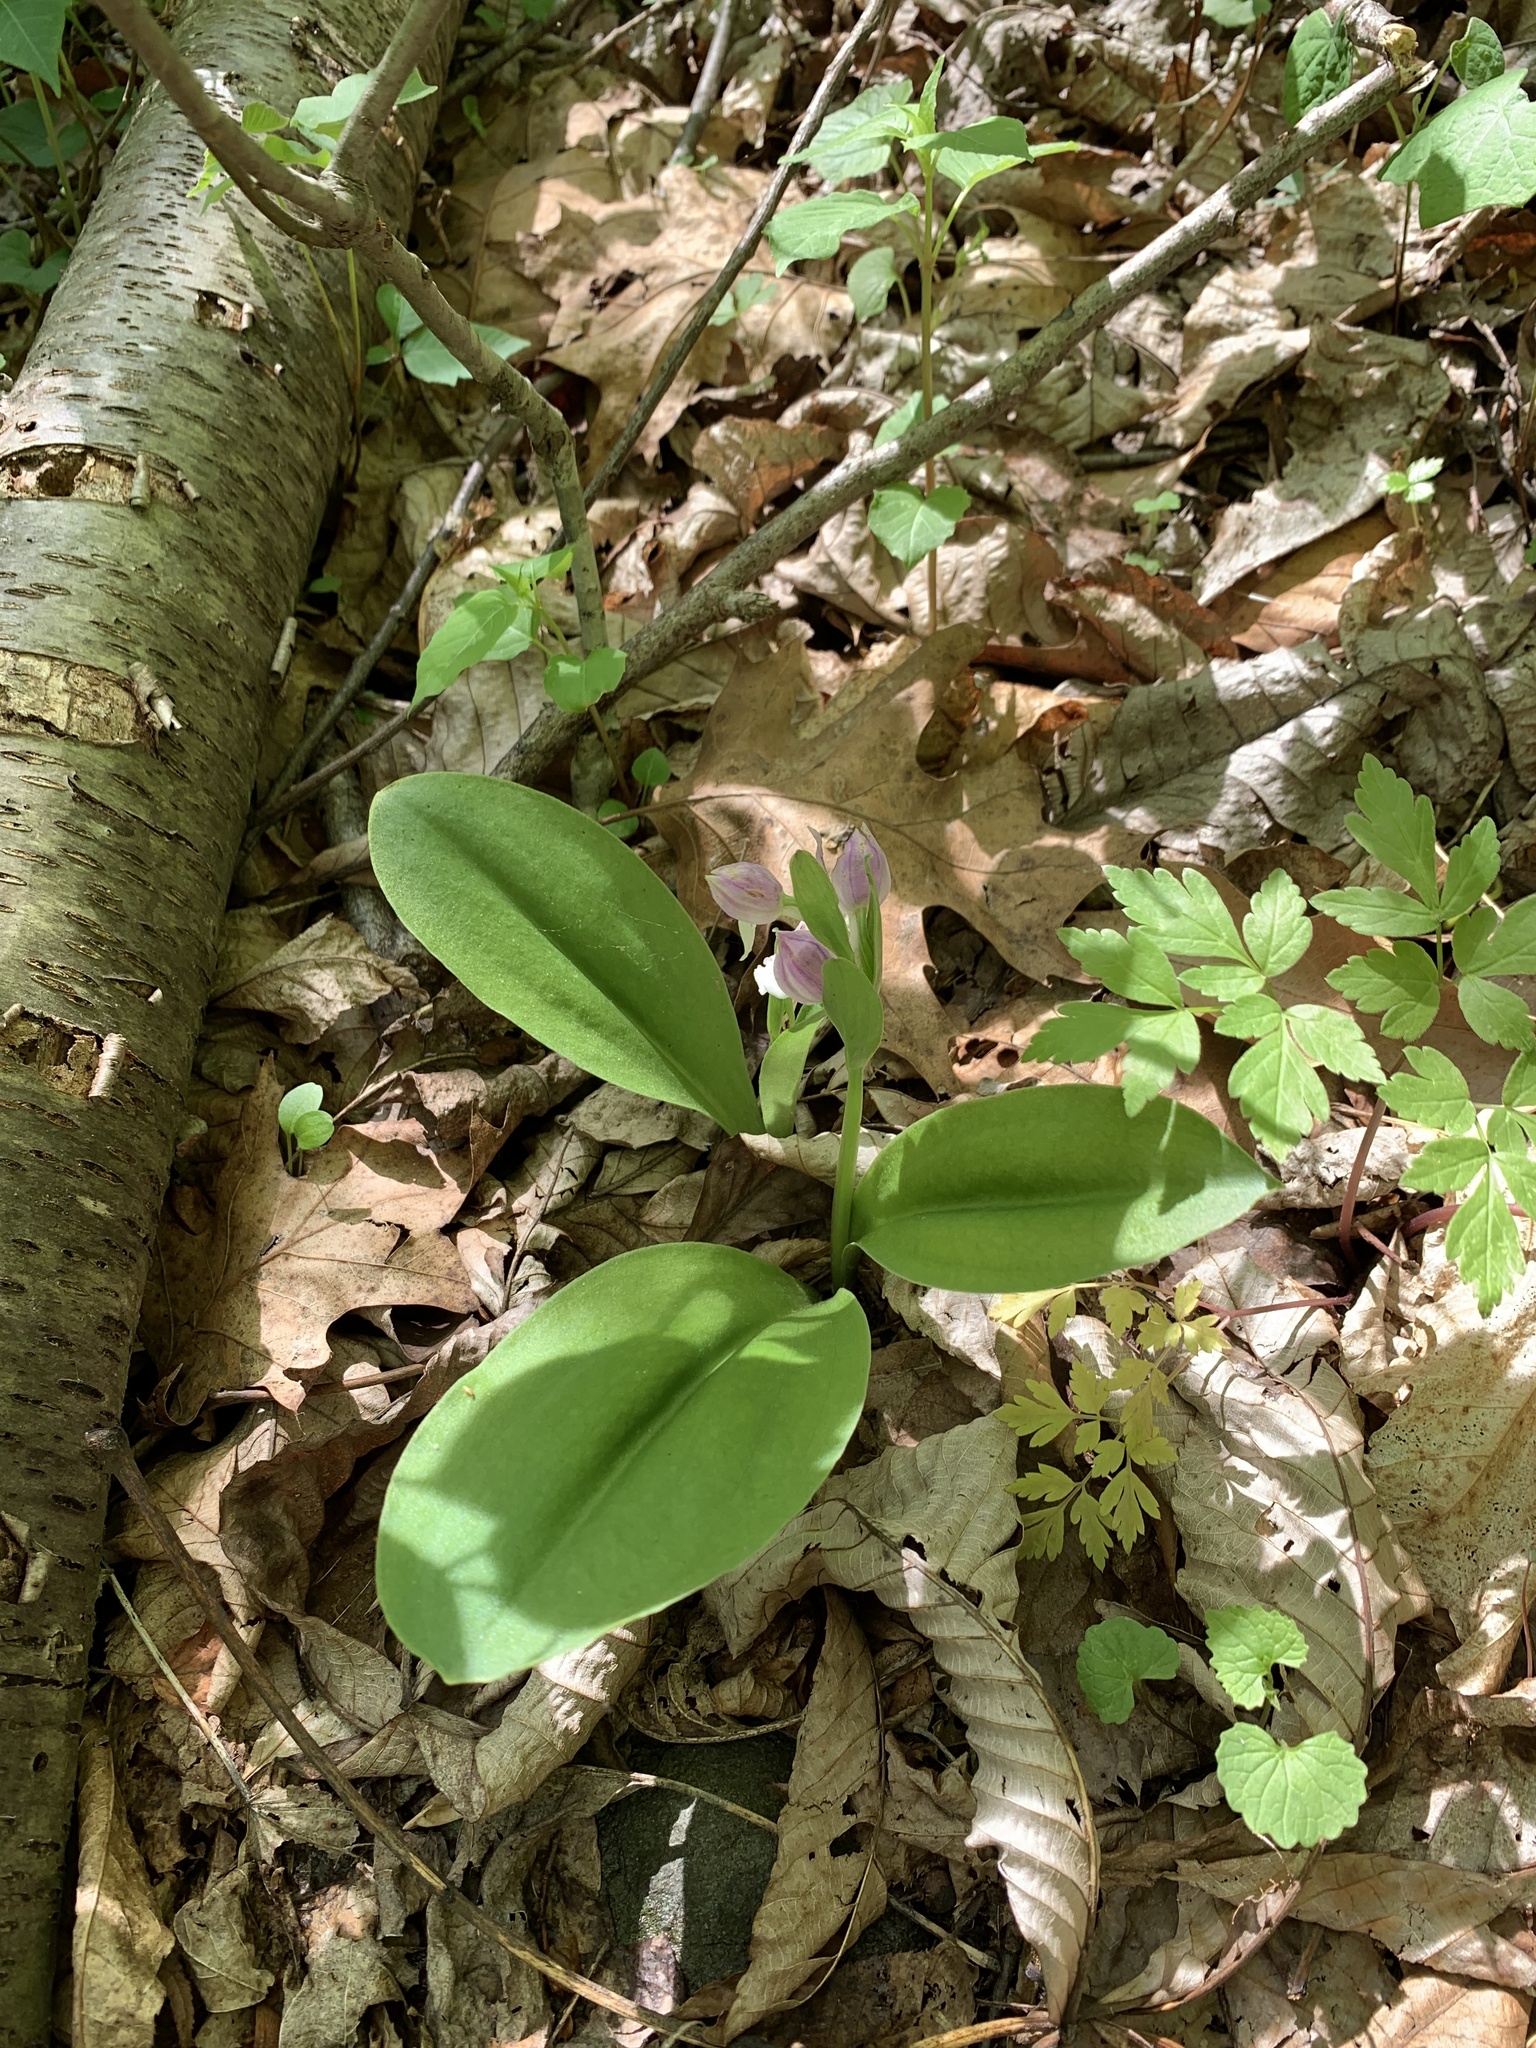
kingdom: Plantae
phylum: Tracheophyta
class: Liliopsida
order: Asparagales
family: Orchidaceae
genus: Galearis
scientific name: Galearis spectabilis
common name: Purple-hooded orchis
